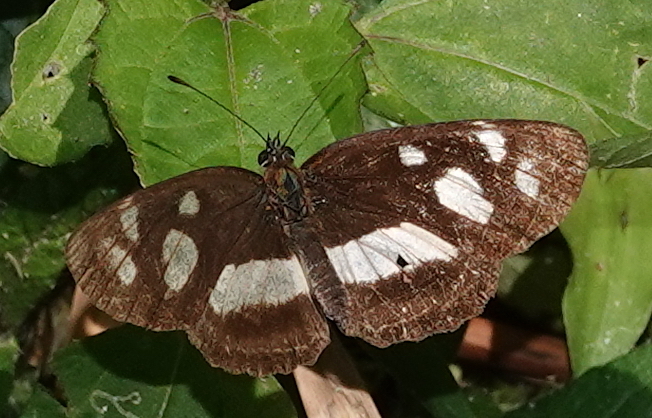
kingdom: Animalia
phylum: Arthropoda
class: Insecta
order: Lepidoptera
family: Nymphalidae
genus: Eresia
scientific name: Eresia clio
